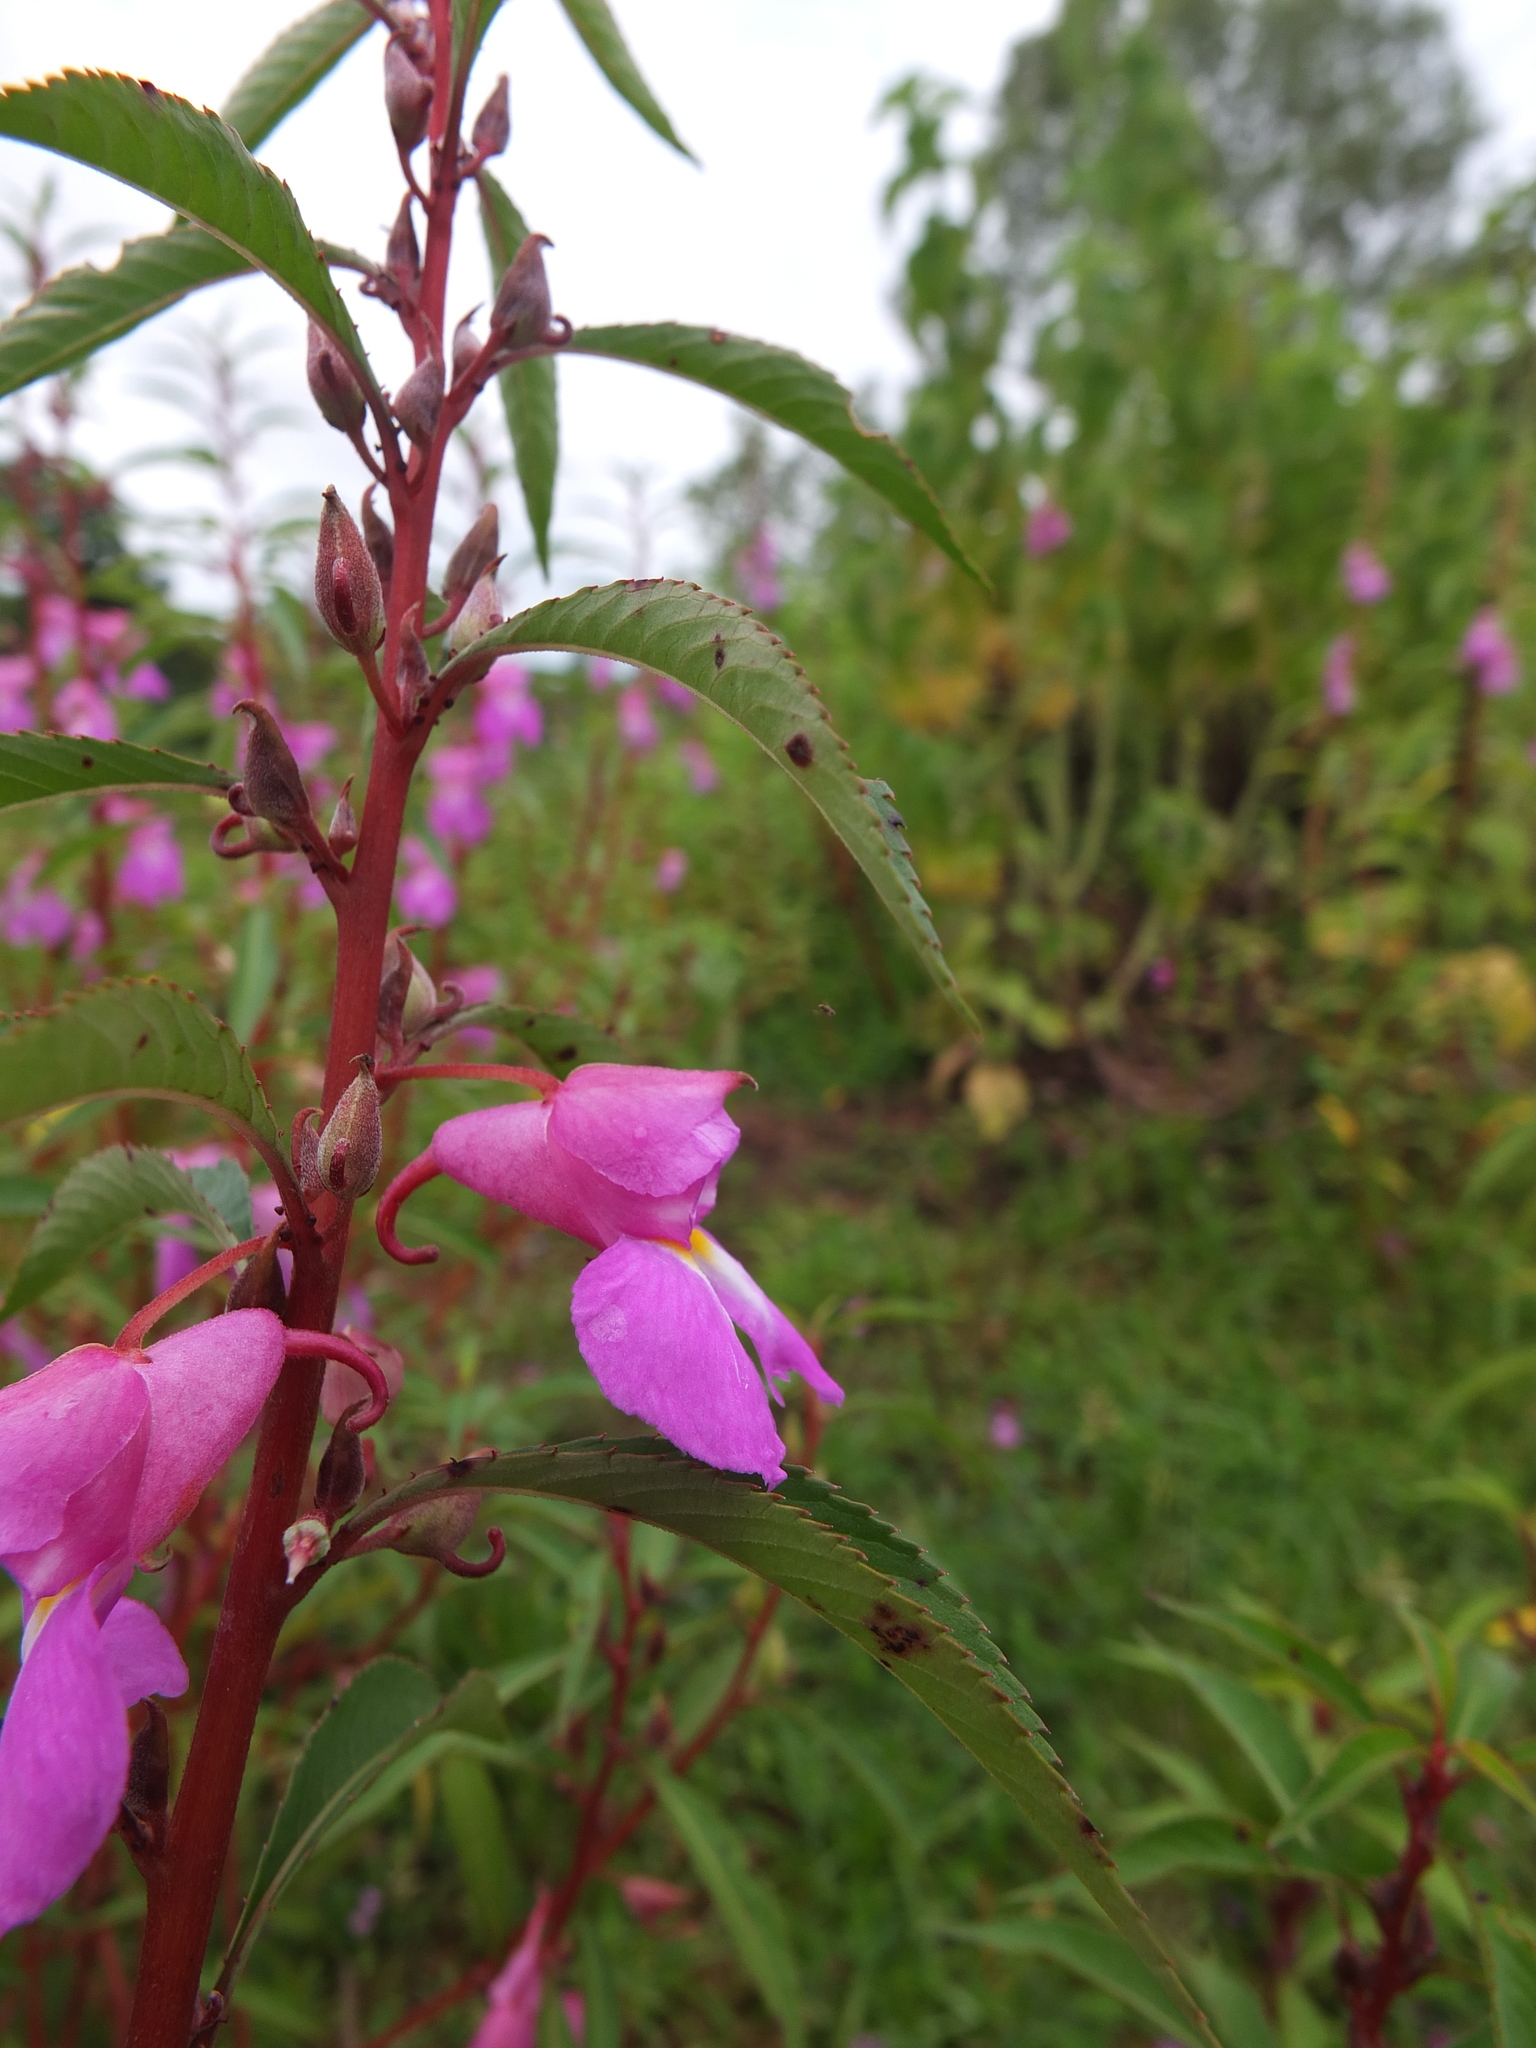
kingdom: Plantae
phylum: Tracheophyta
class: Magnoliopsida
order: Ericales
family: Balsaminaceae
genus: Impatiens
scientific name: Impatiens balsamina
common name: Balsam
